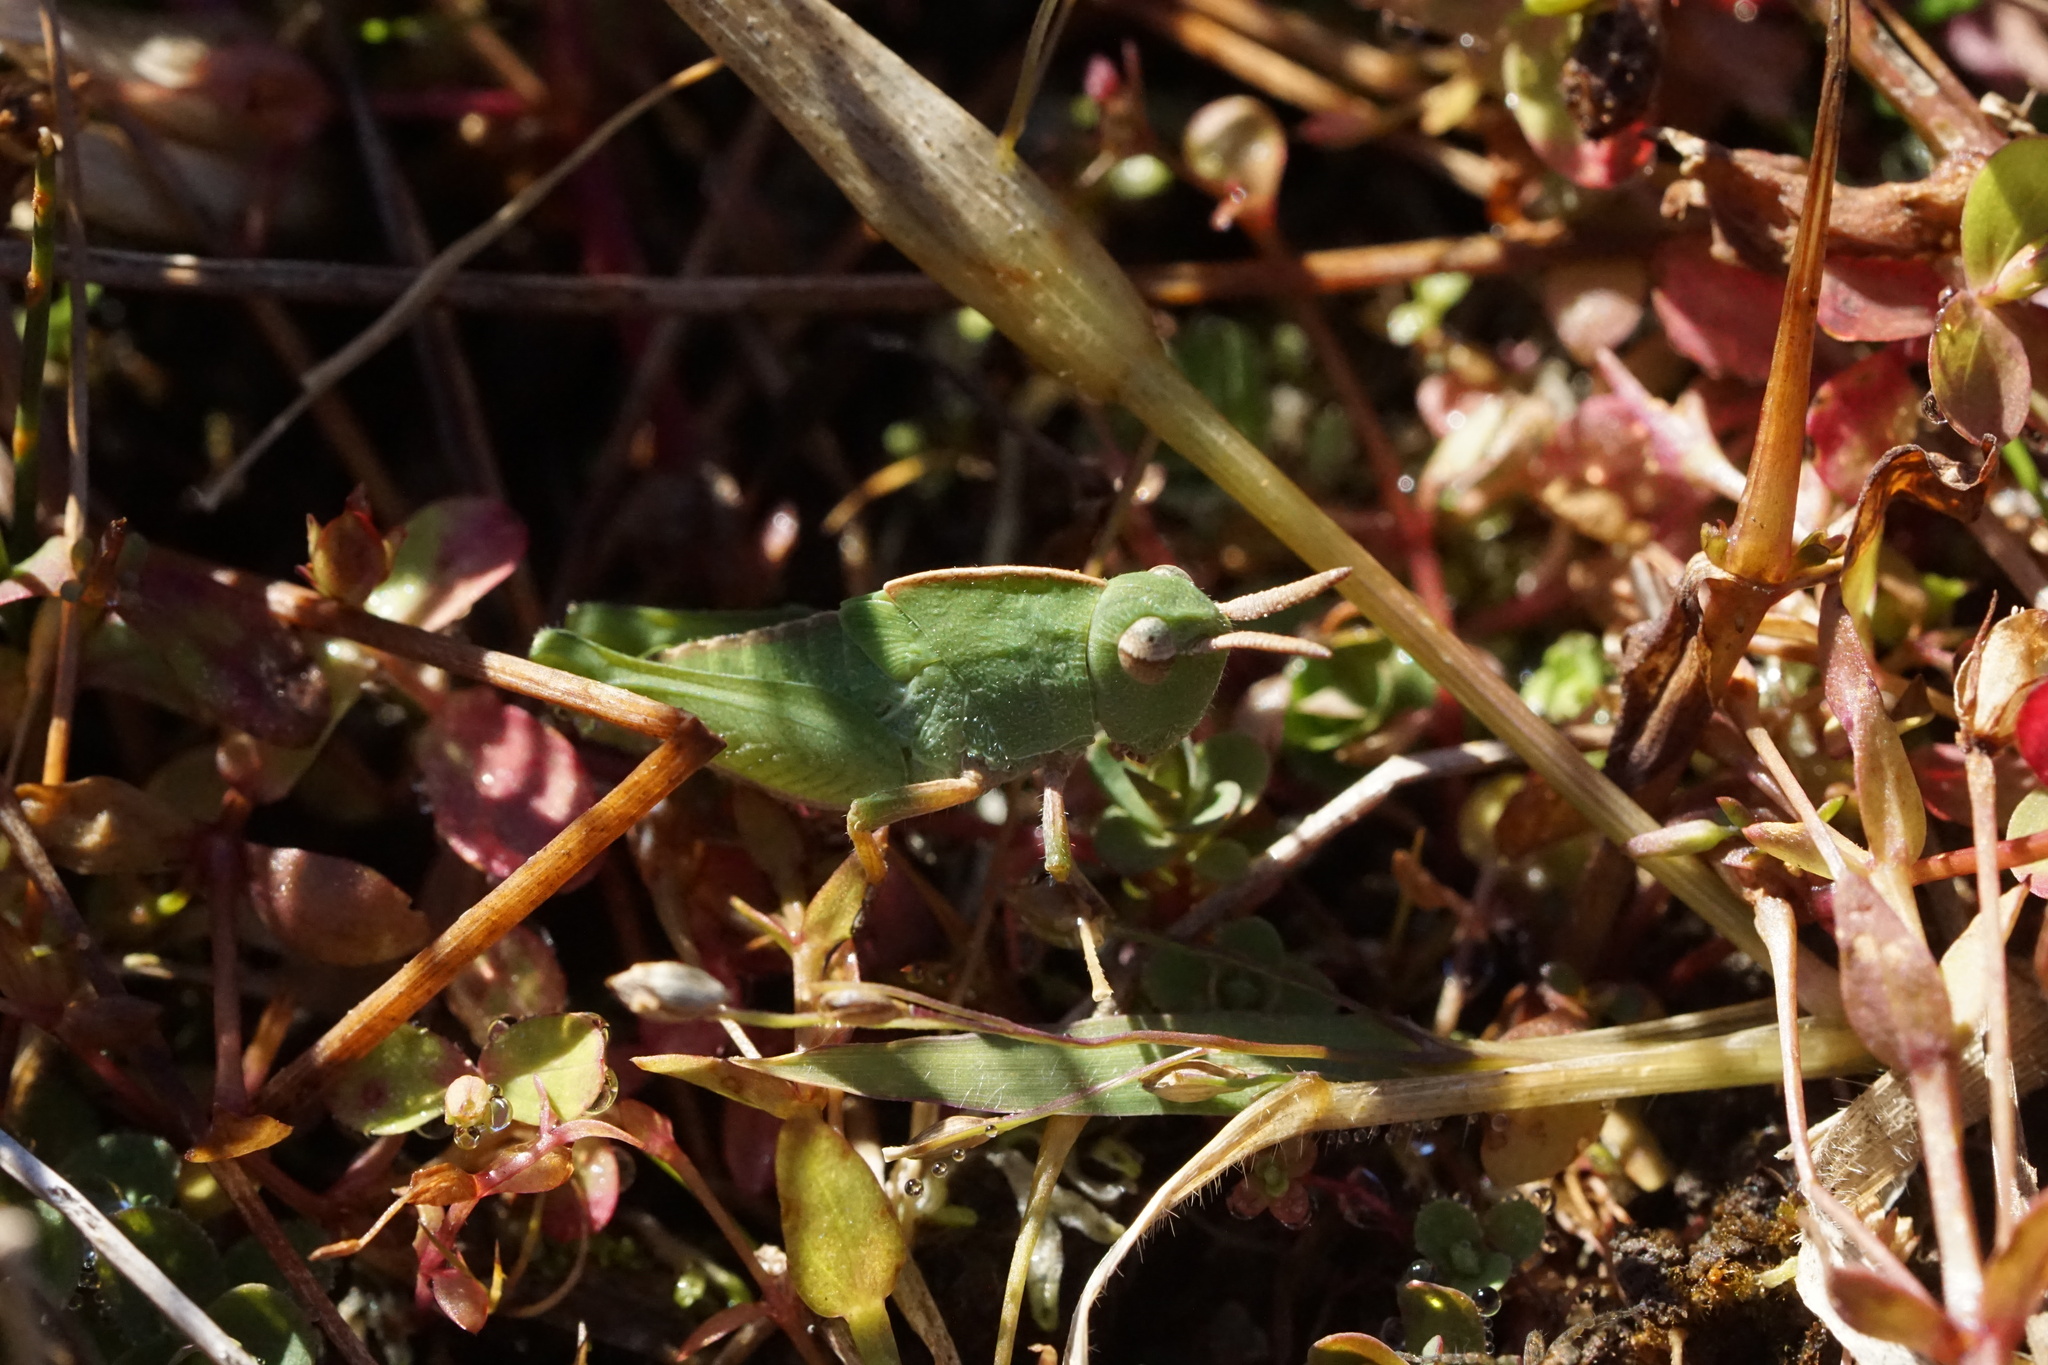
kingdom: Animalia
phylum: Arthropoda
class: Insecta
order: Orthoptera
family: Acrididae
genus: Chortophaga
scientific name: Chortophaga viridifasciata
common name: Green-striped grasshopper
